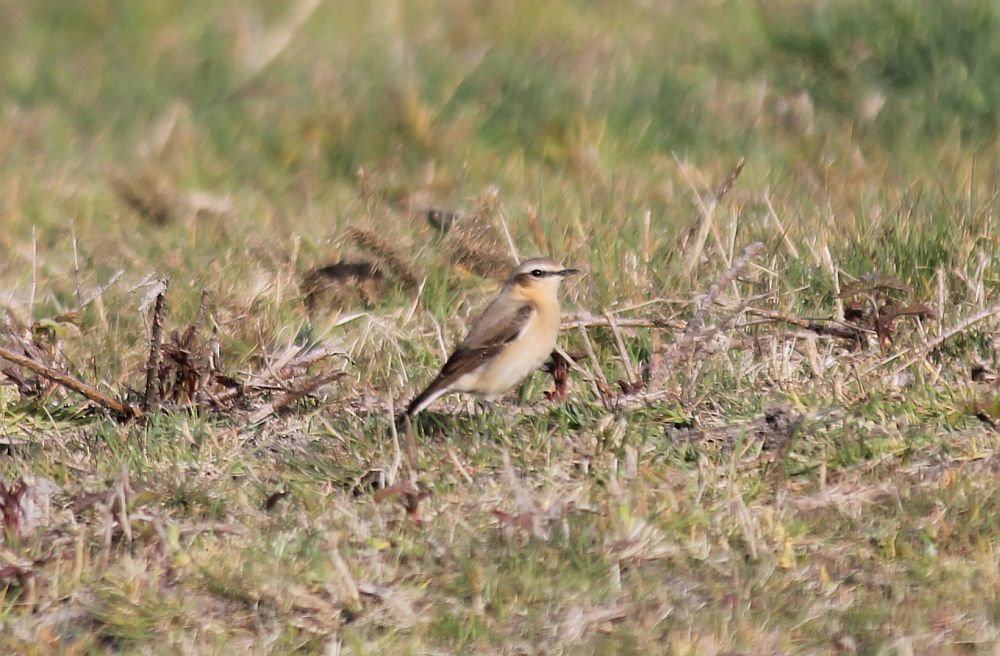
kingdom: Animalia
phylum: Chordata
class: Aves
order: Passeriformes
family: Muscicapidae
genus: Oenanthe
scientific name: Oenanthe oenanthe
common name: Northern wheatear
